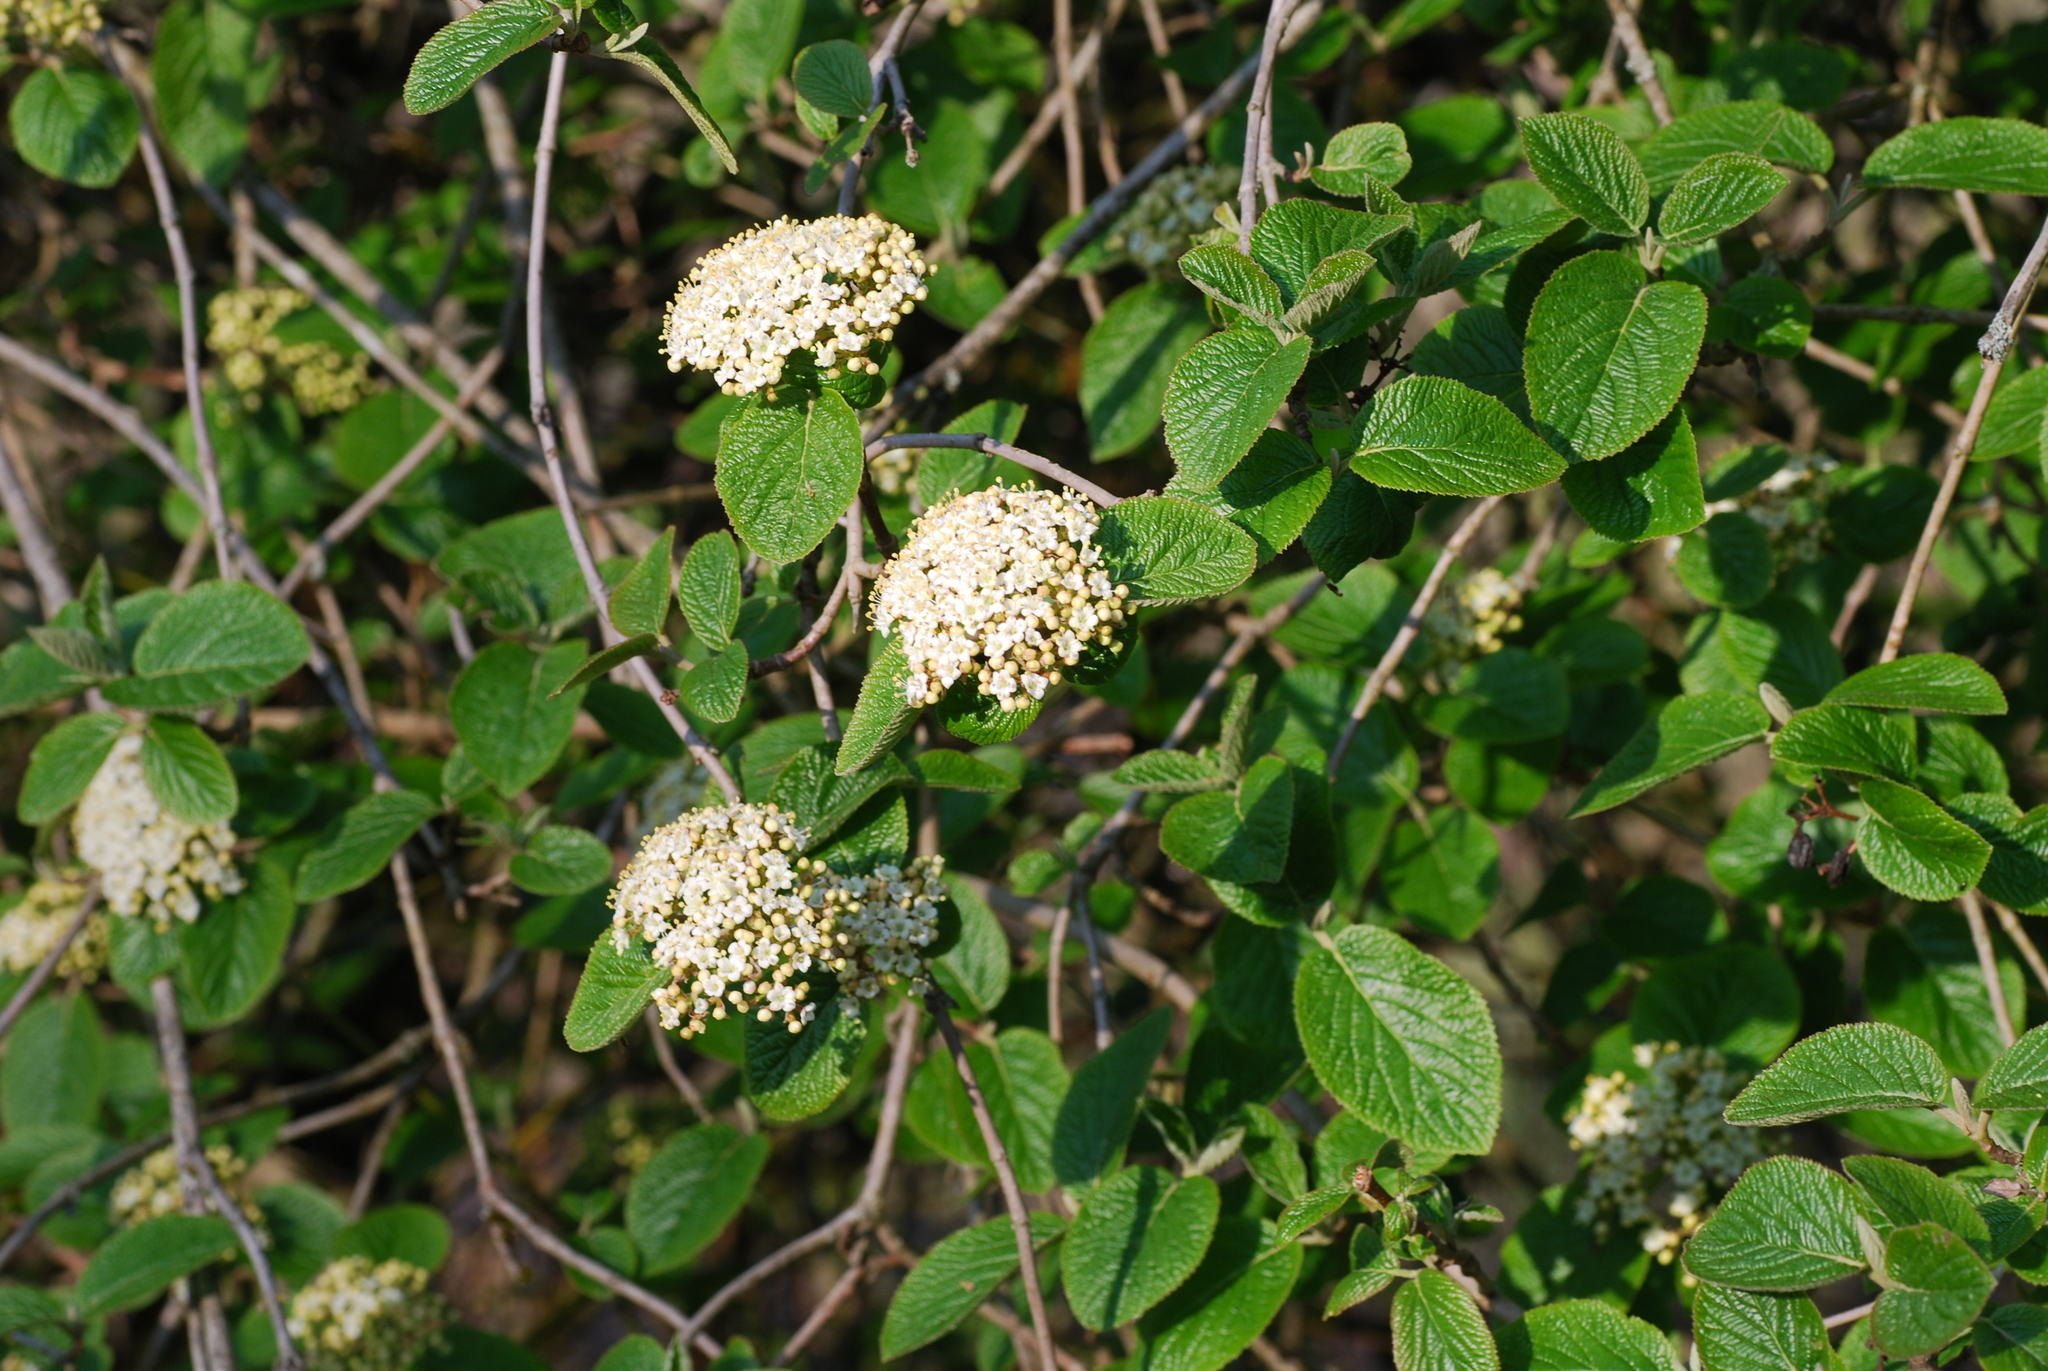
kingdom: Plantae
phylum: Tracheophyta
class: Magnoliopsida
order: Dipsacales
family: Viburnaceae
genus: Viburnum
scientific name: Viburnum lantana
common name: Wayfaring tree
